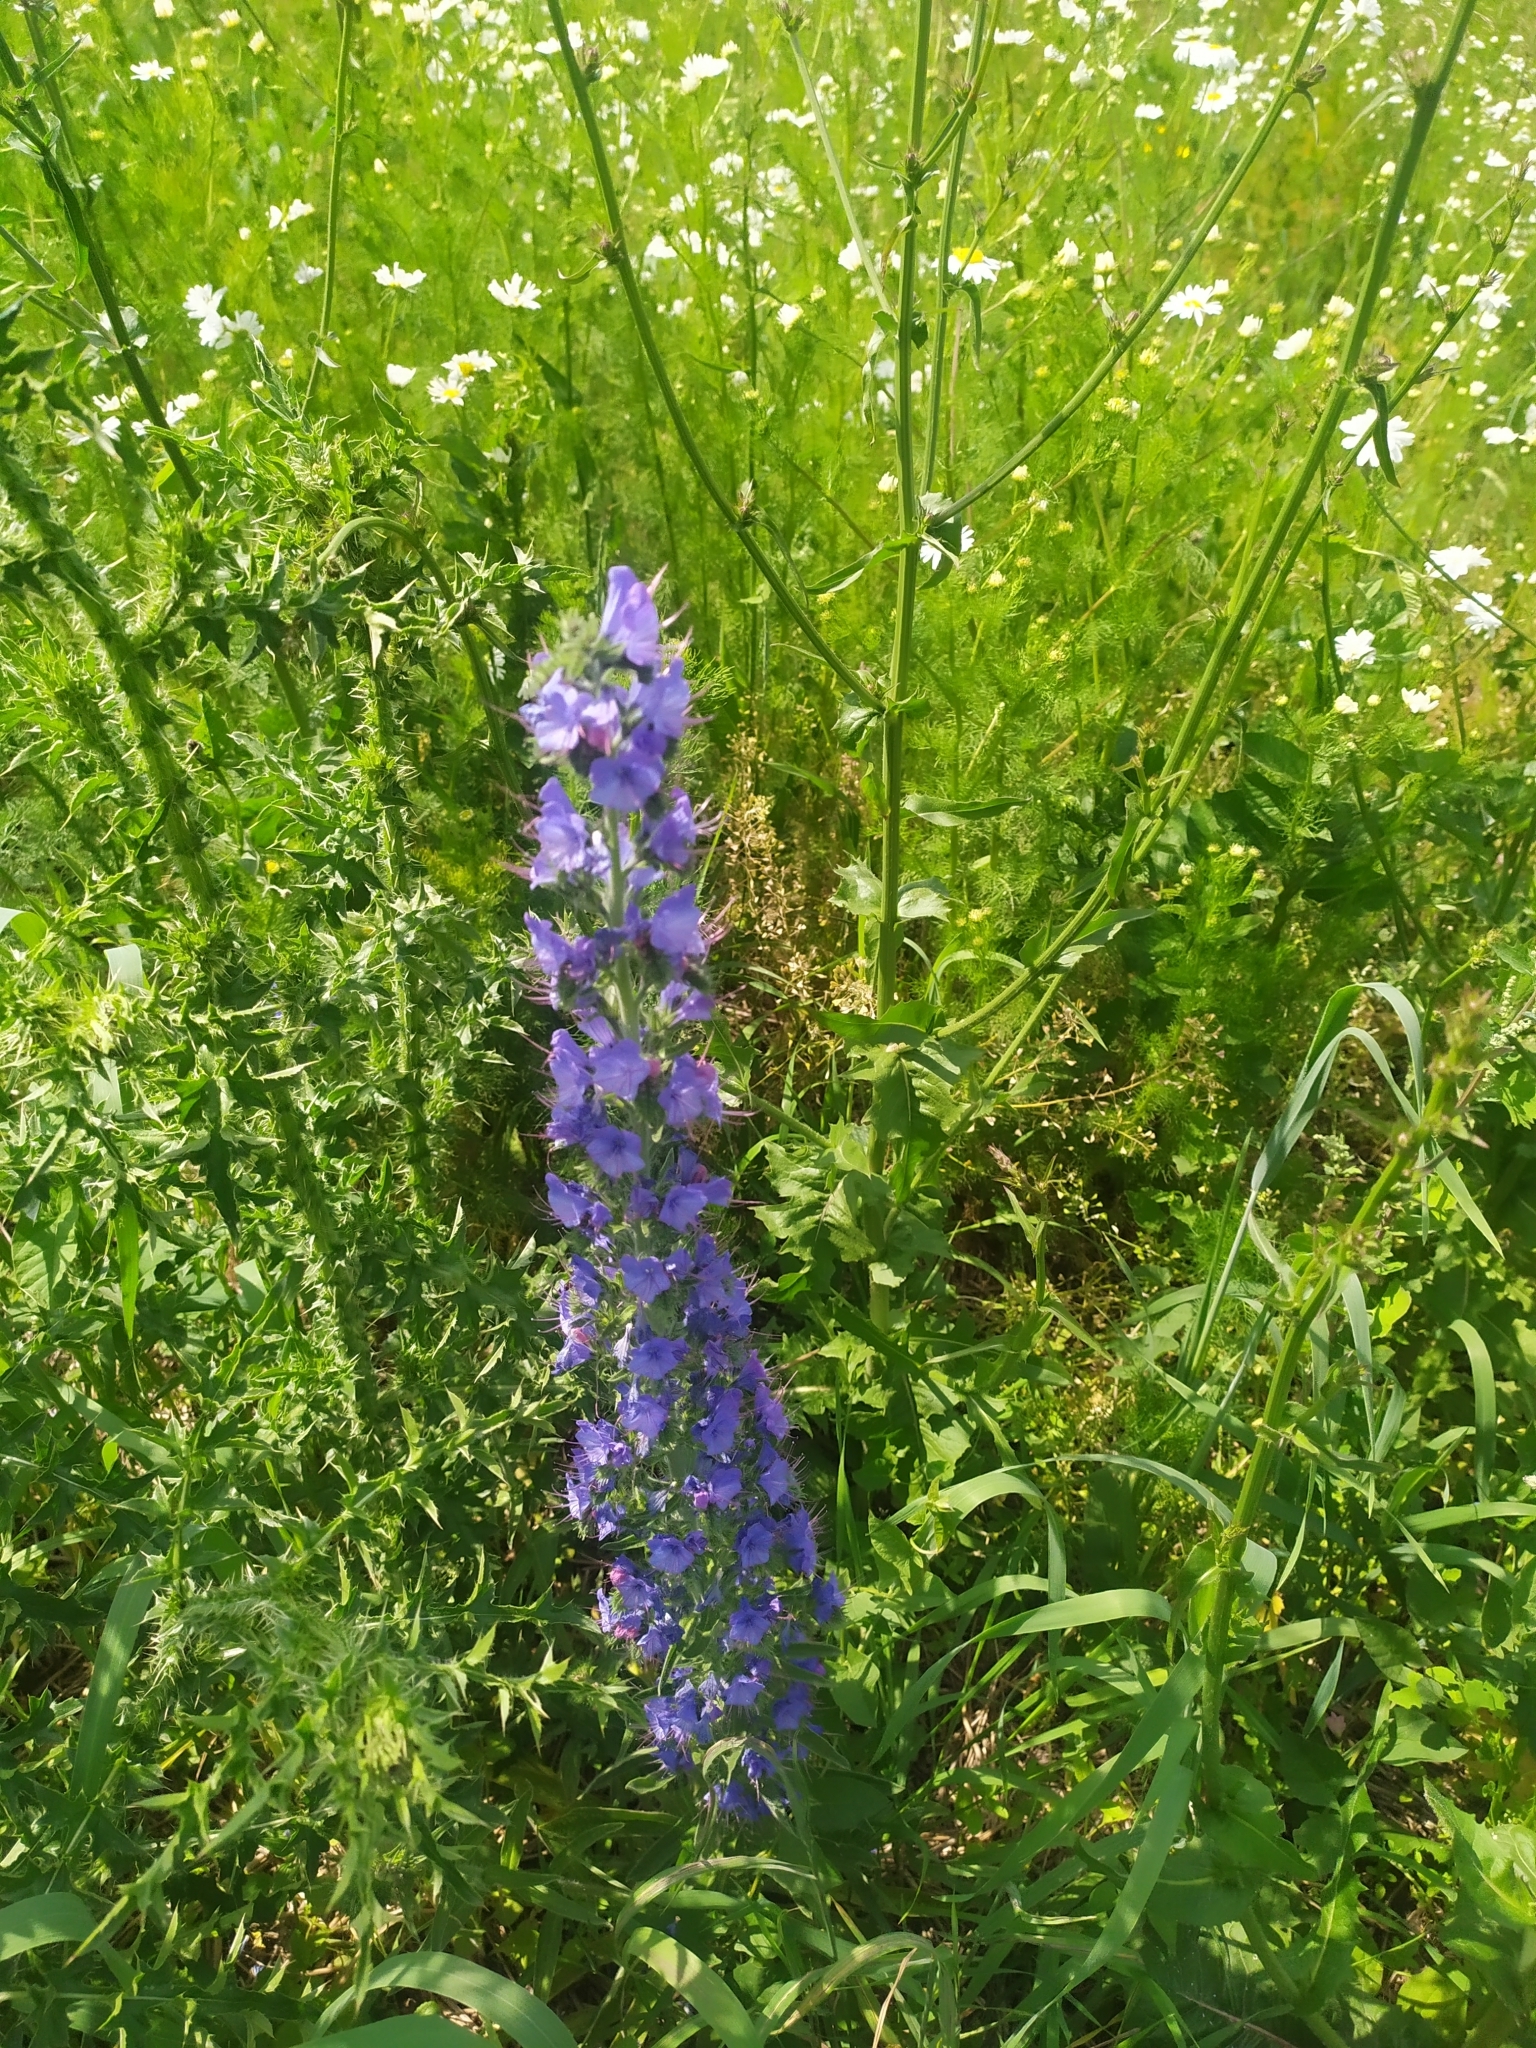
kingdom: Plantae
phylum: Tracheophyta
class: Magnoliopsida
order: Boraginales
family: Boraginaceae
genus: Echium
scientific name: Echium vulgare
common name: Common viper's bugloss
